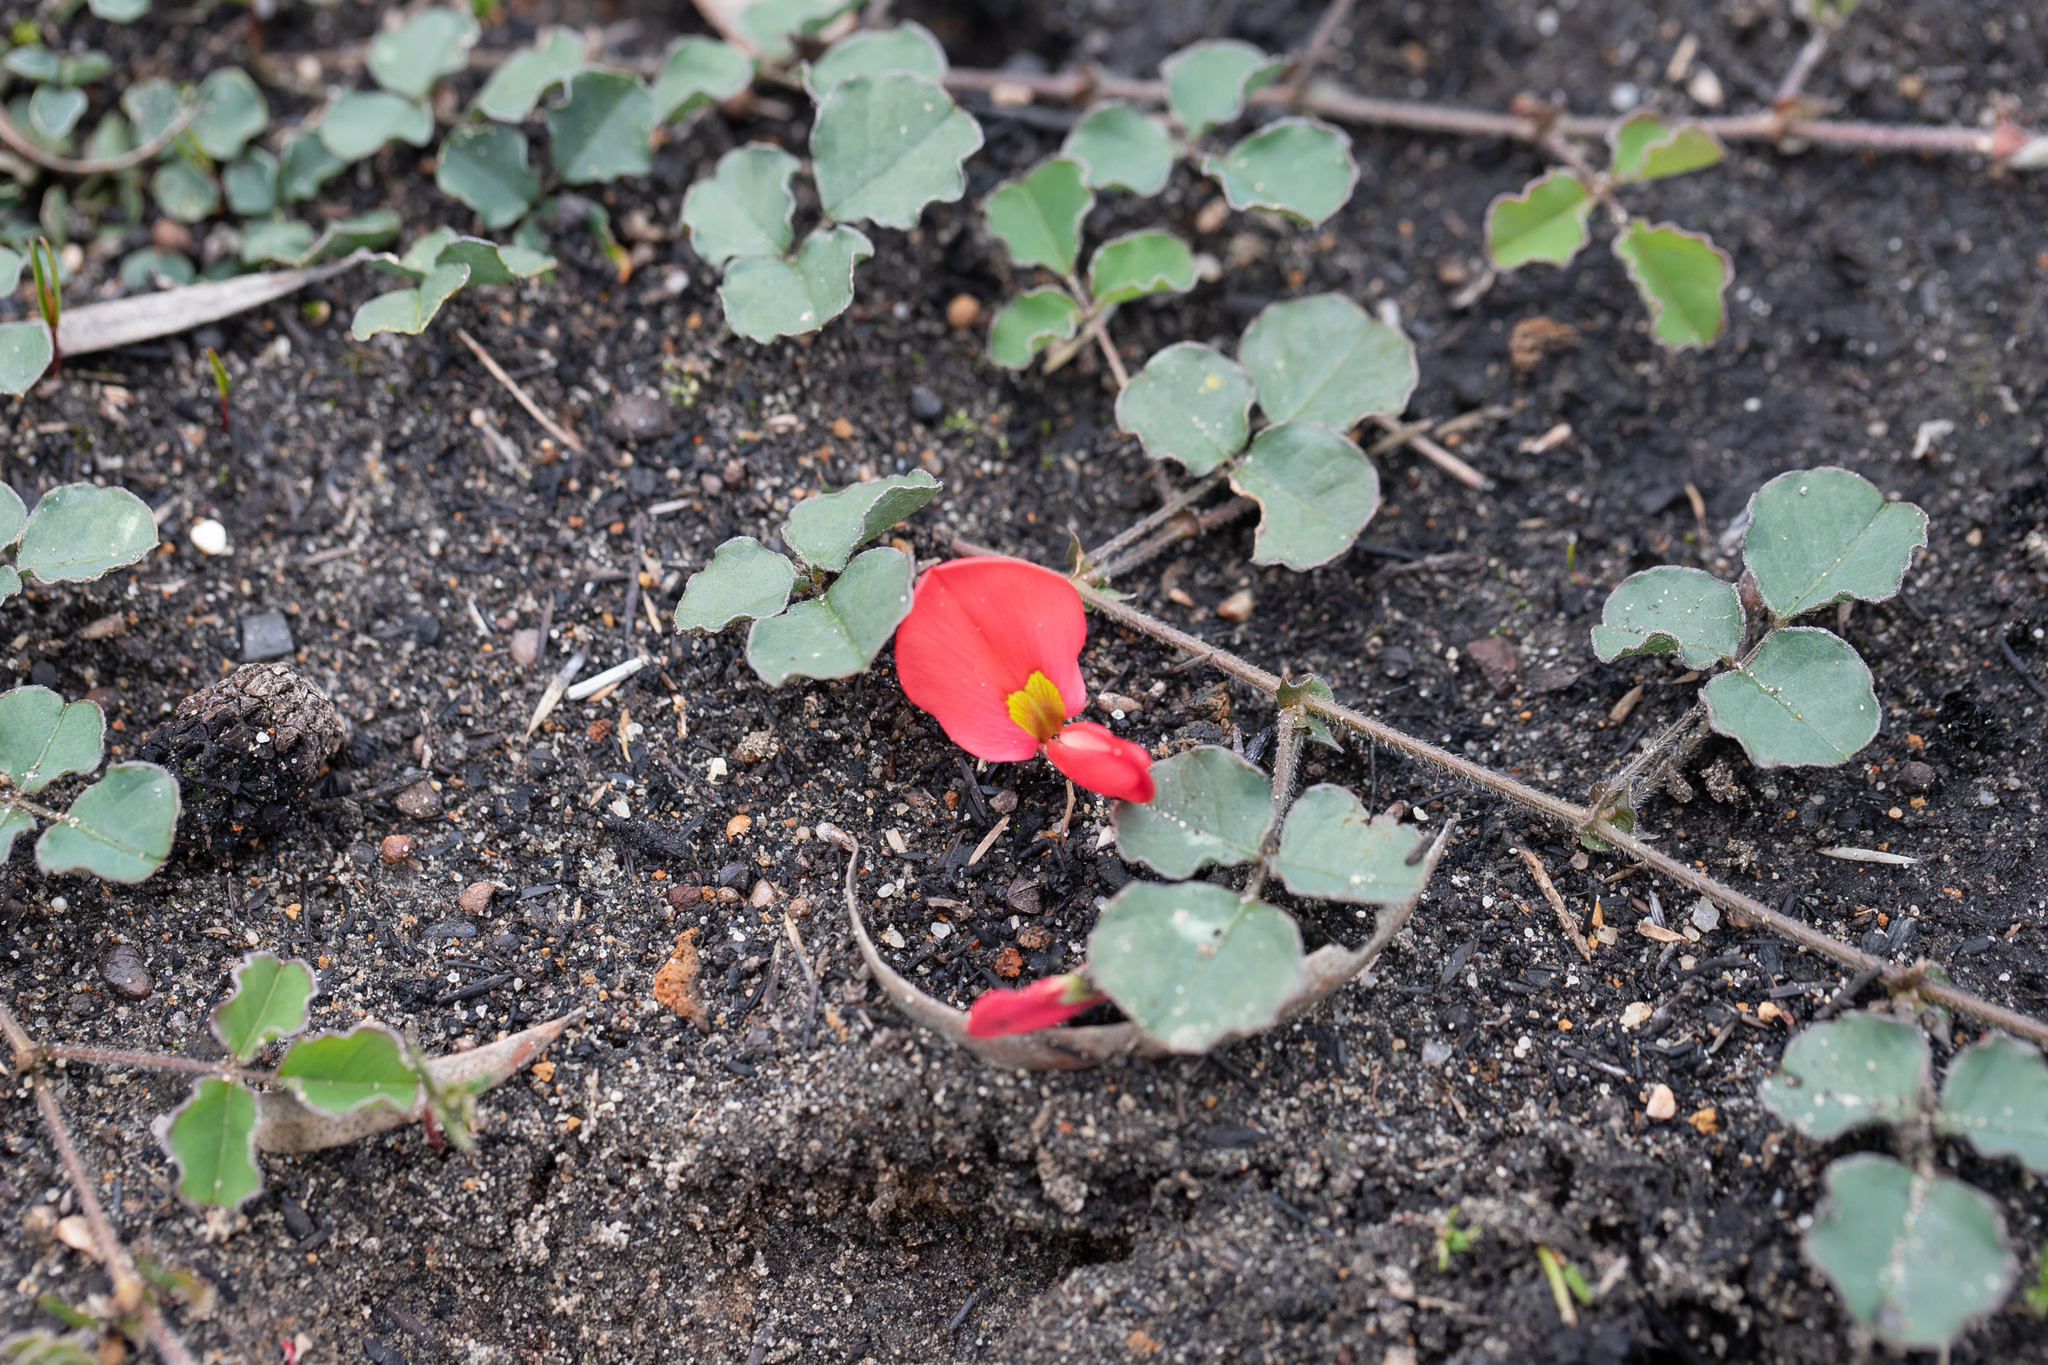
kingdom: Plantae
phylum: Tracheophyta
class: Magnoliopsida
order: Fabales
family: Fabaceae
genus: Kennedia
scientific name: Kennedia prostrata
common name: Running-postman
